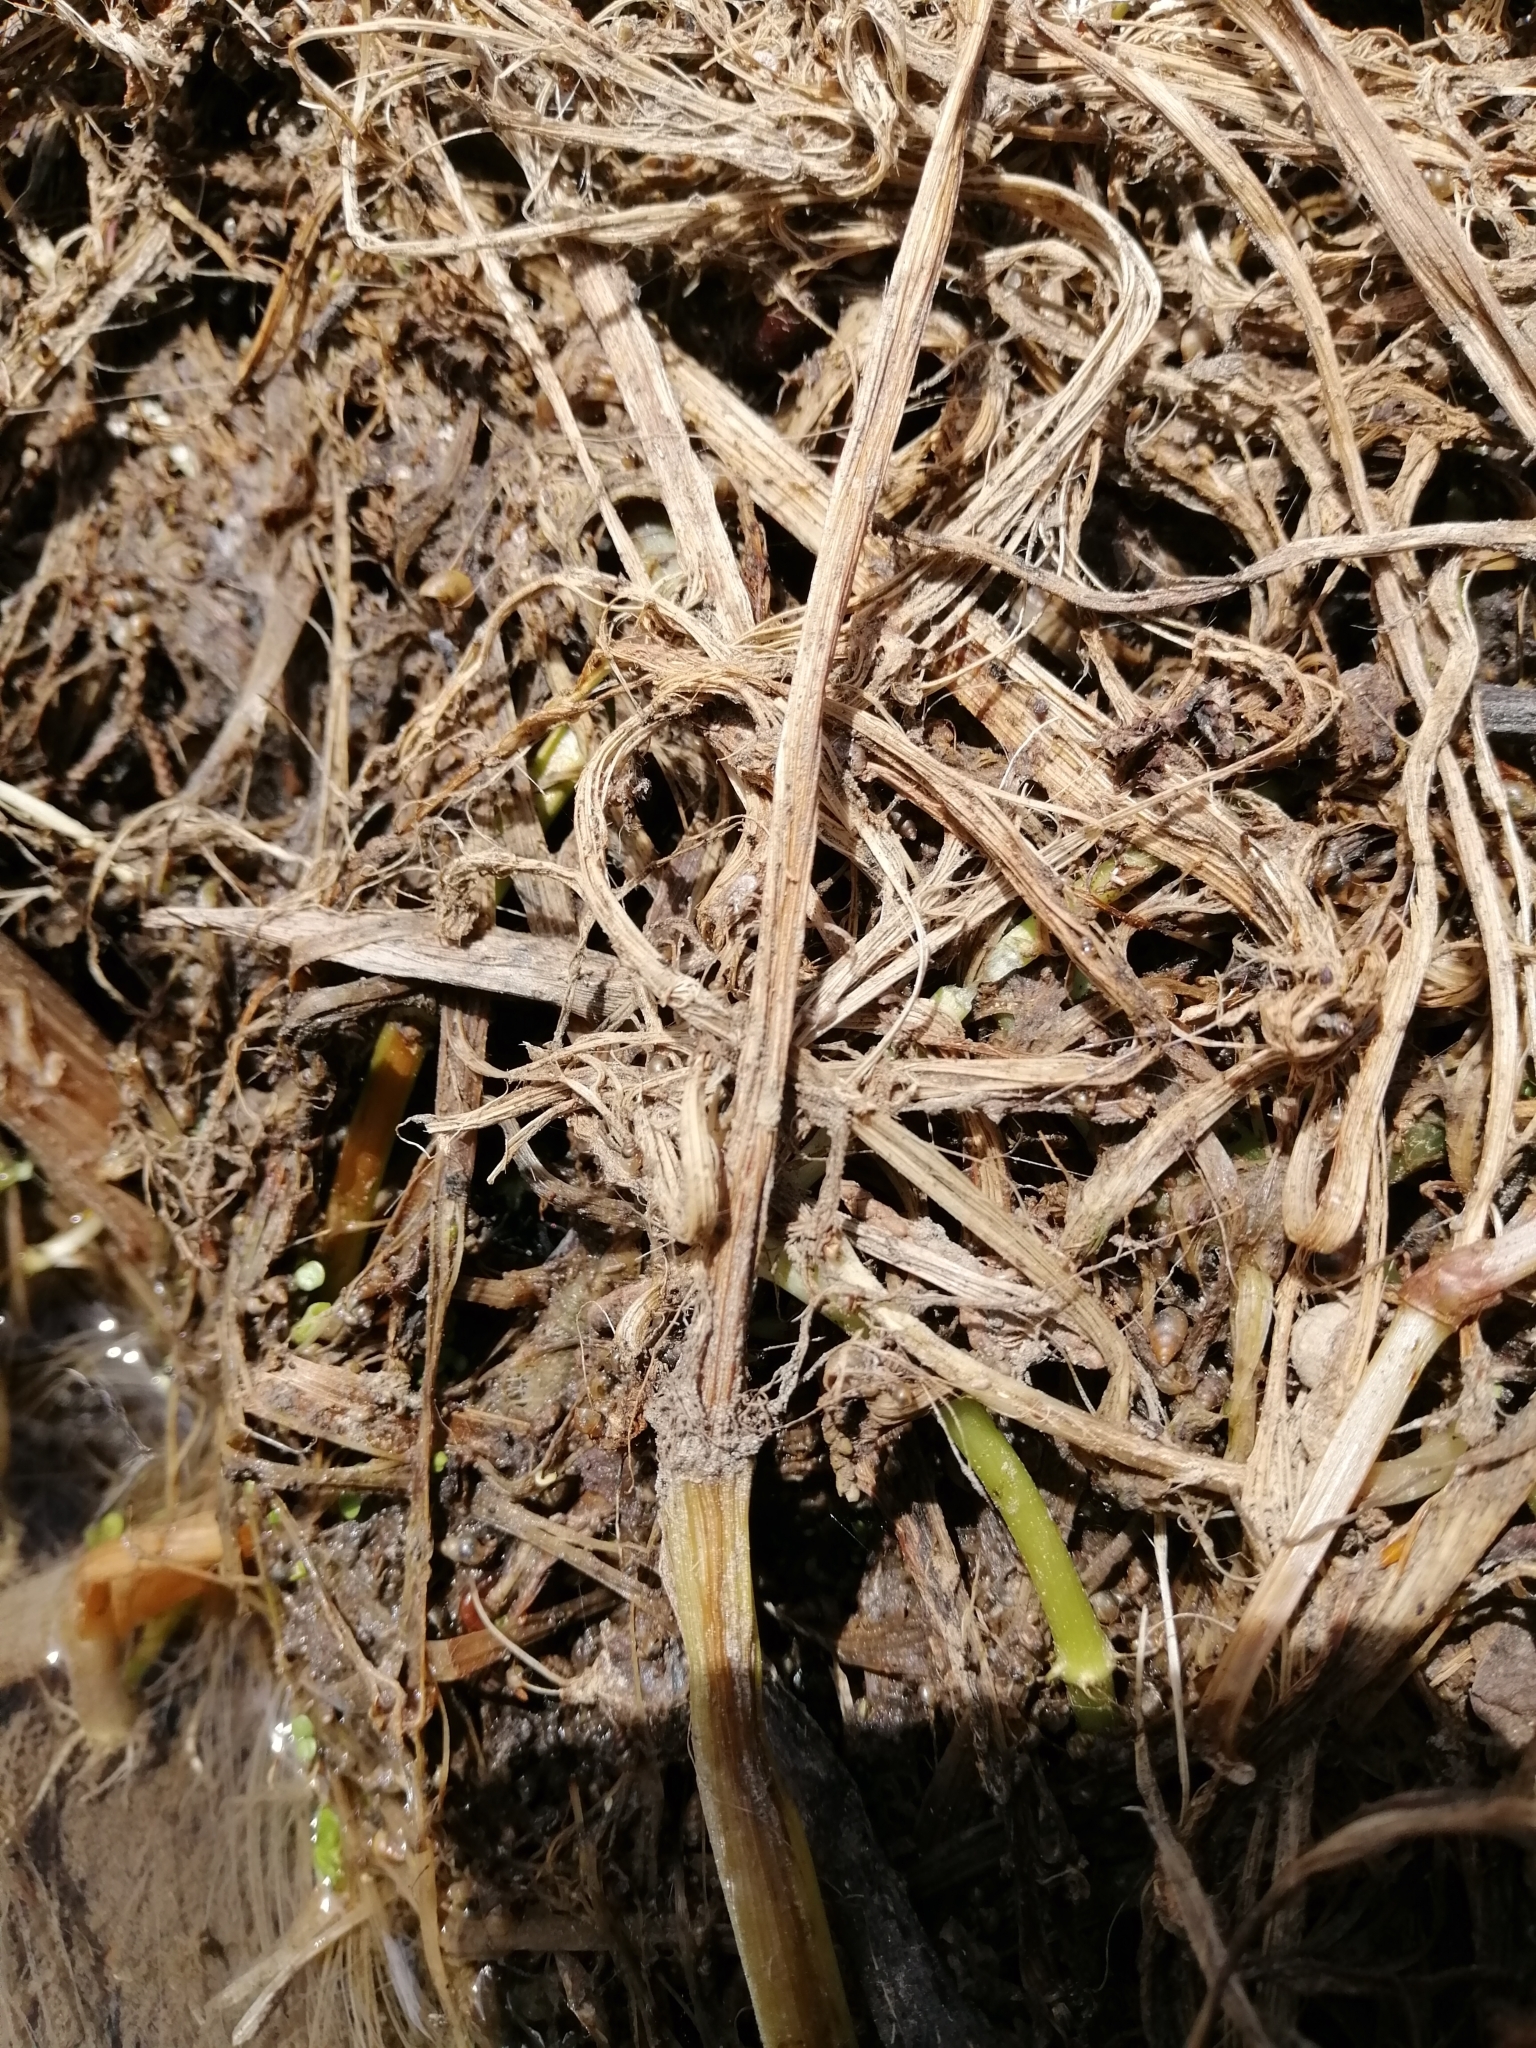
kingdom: Animalia
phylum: Arthropoda
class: Insecta
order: Diptera
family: Syrphidae
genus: Eristalis
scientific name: Eristalis tenax
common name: Drone fly
